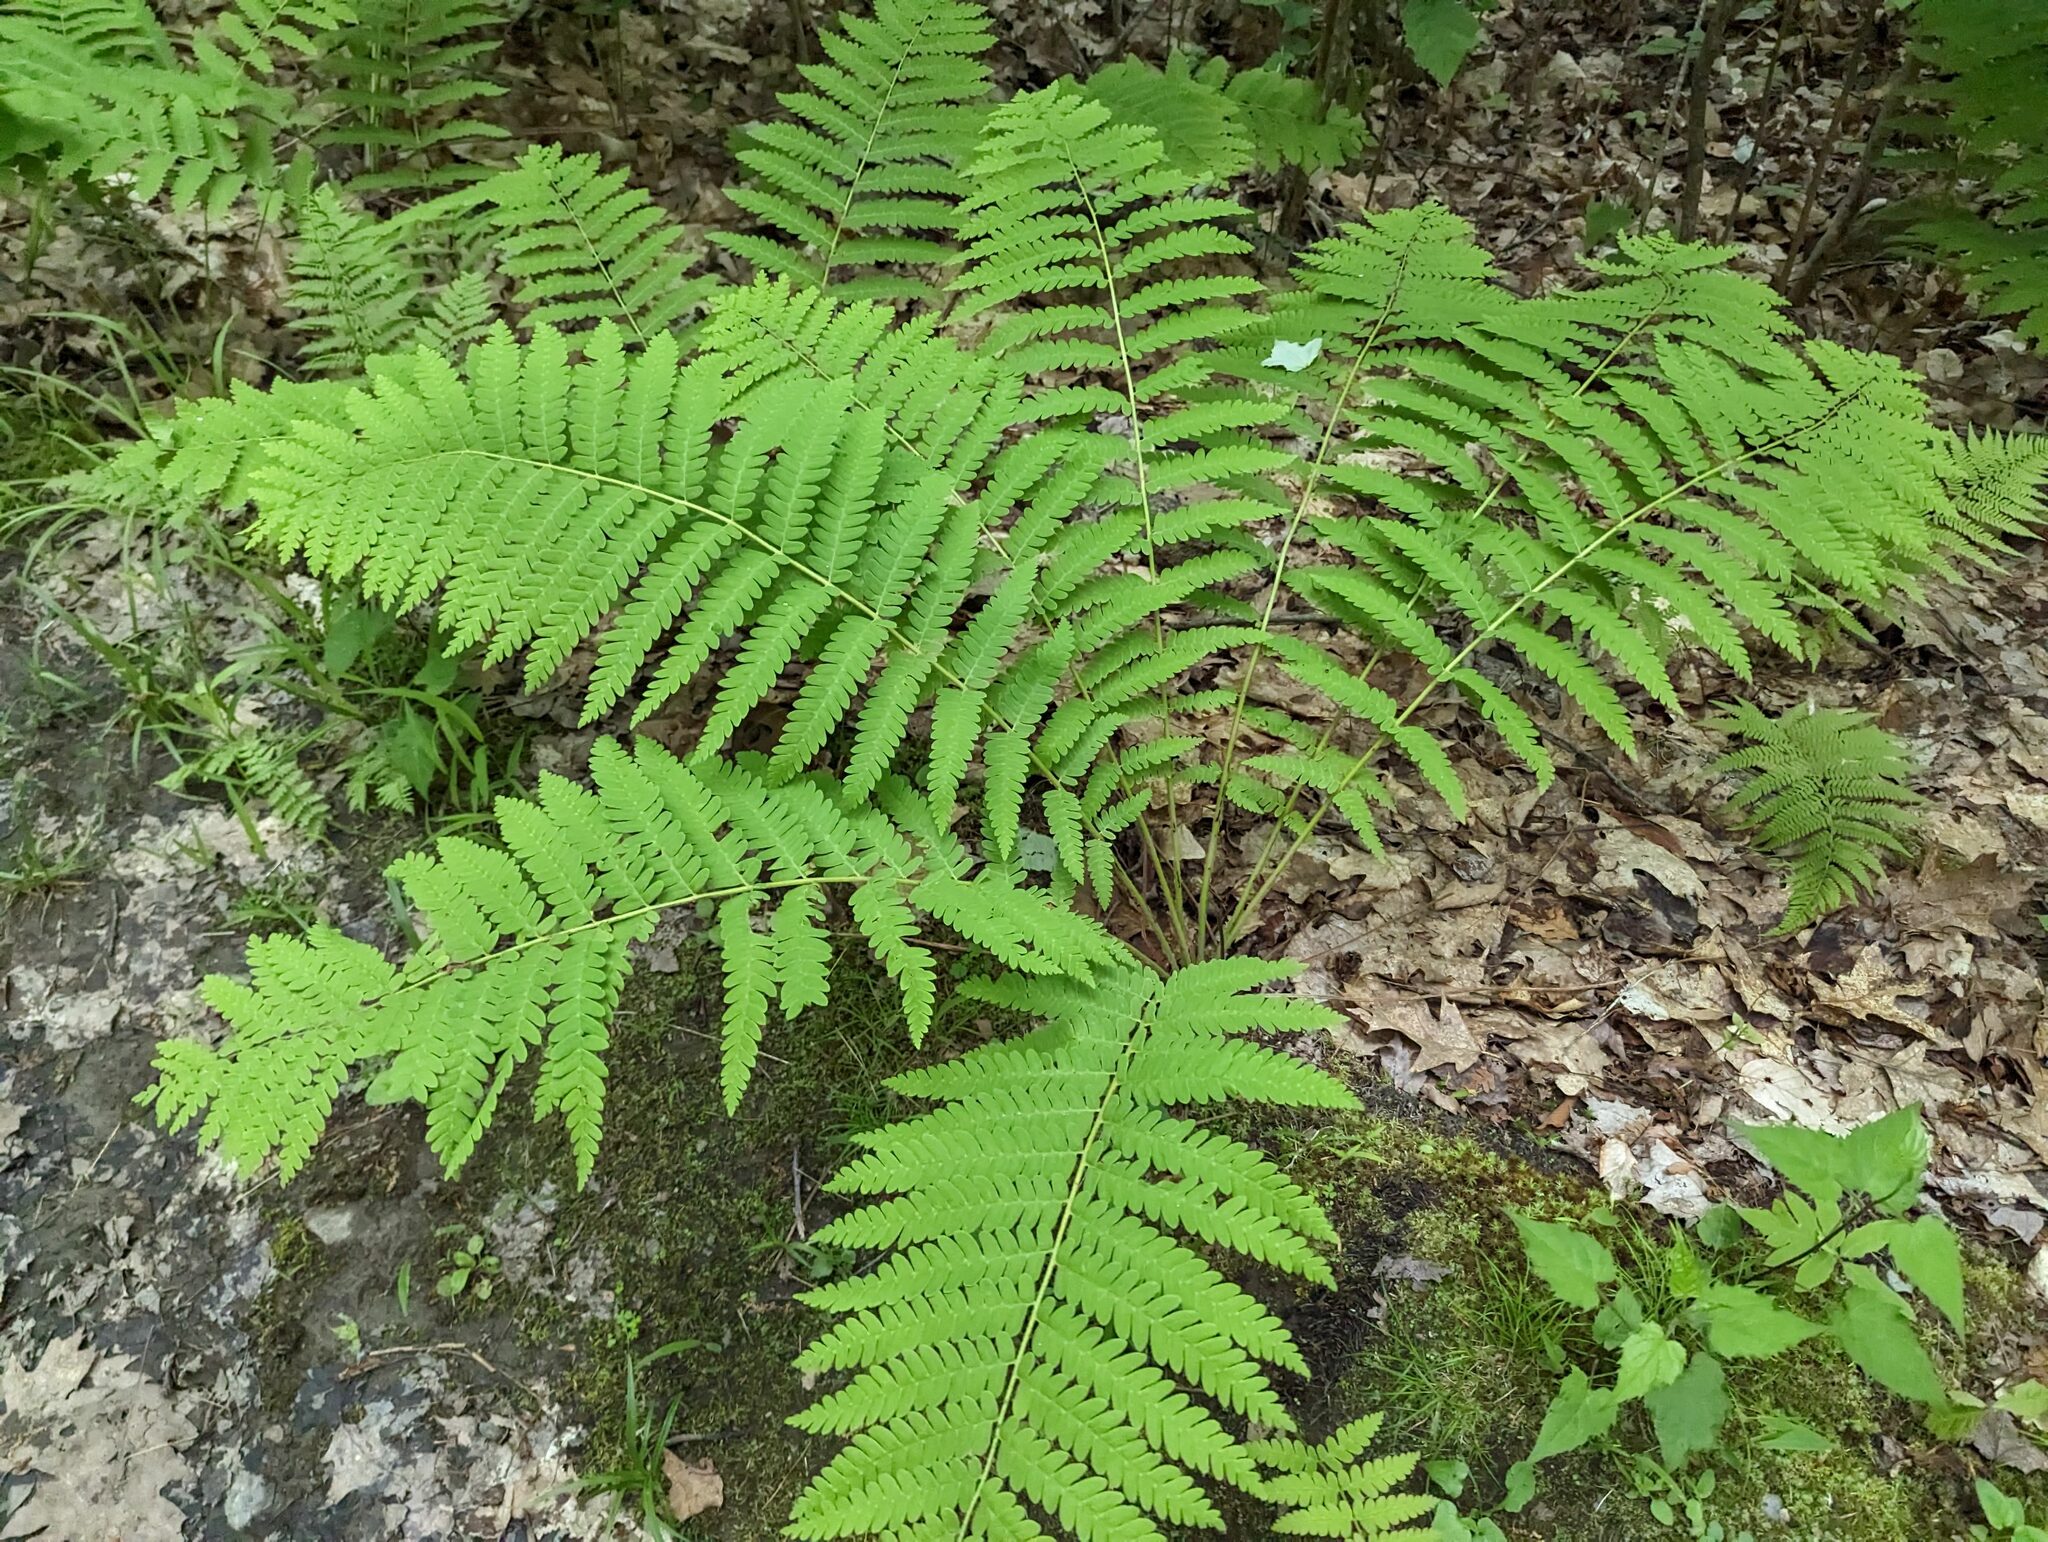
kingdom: Plantae
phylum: Tracheophyta
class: Polypodiopsida
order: Osmundales
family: Osmundaceae
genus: Claytosmunda
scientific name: Claytosmunda claytoniana
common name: Clayton's fern
